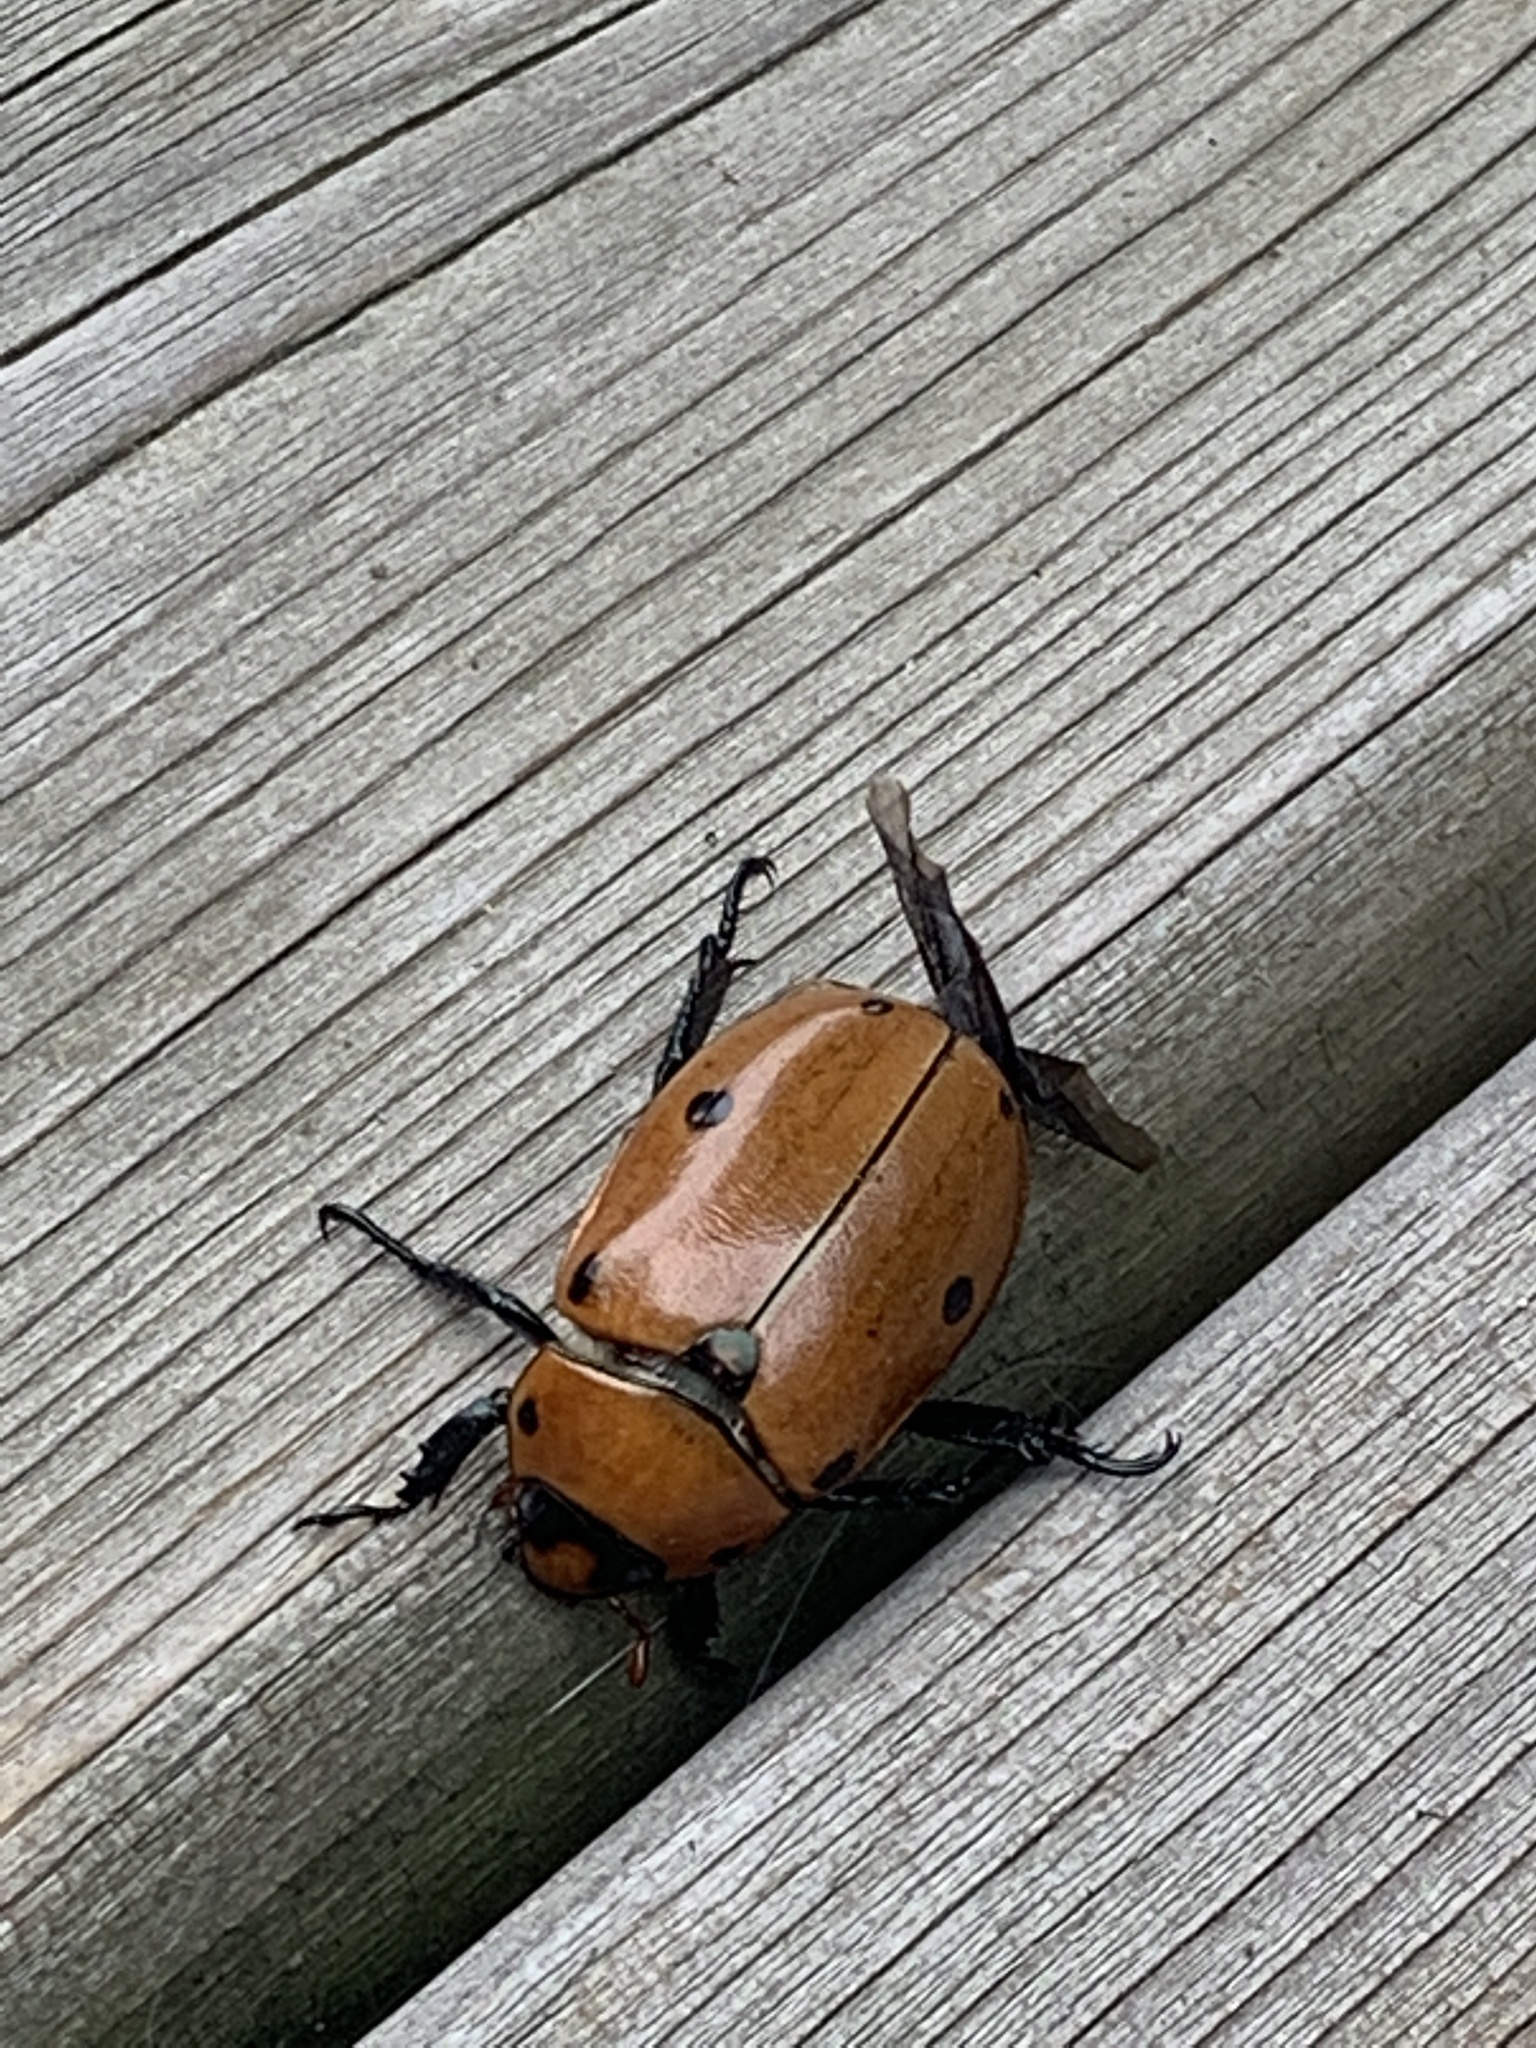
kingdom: Animalia
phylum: Arthropoda
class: Insecta
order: Coleoptera
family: Scarabaeidae
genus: Pelidnota
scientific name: Pelidnota punctata
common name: Grapevine beetle
